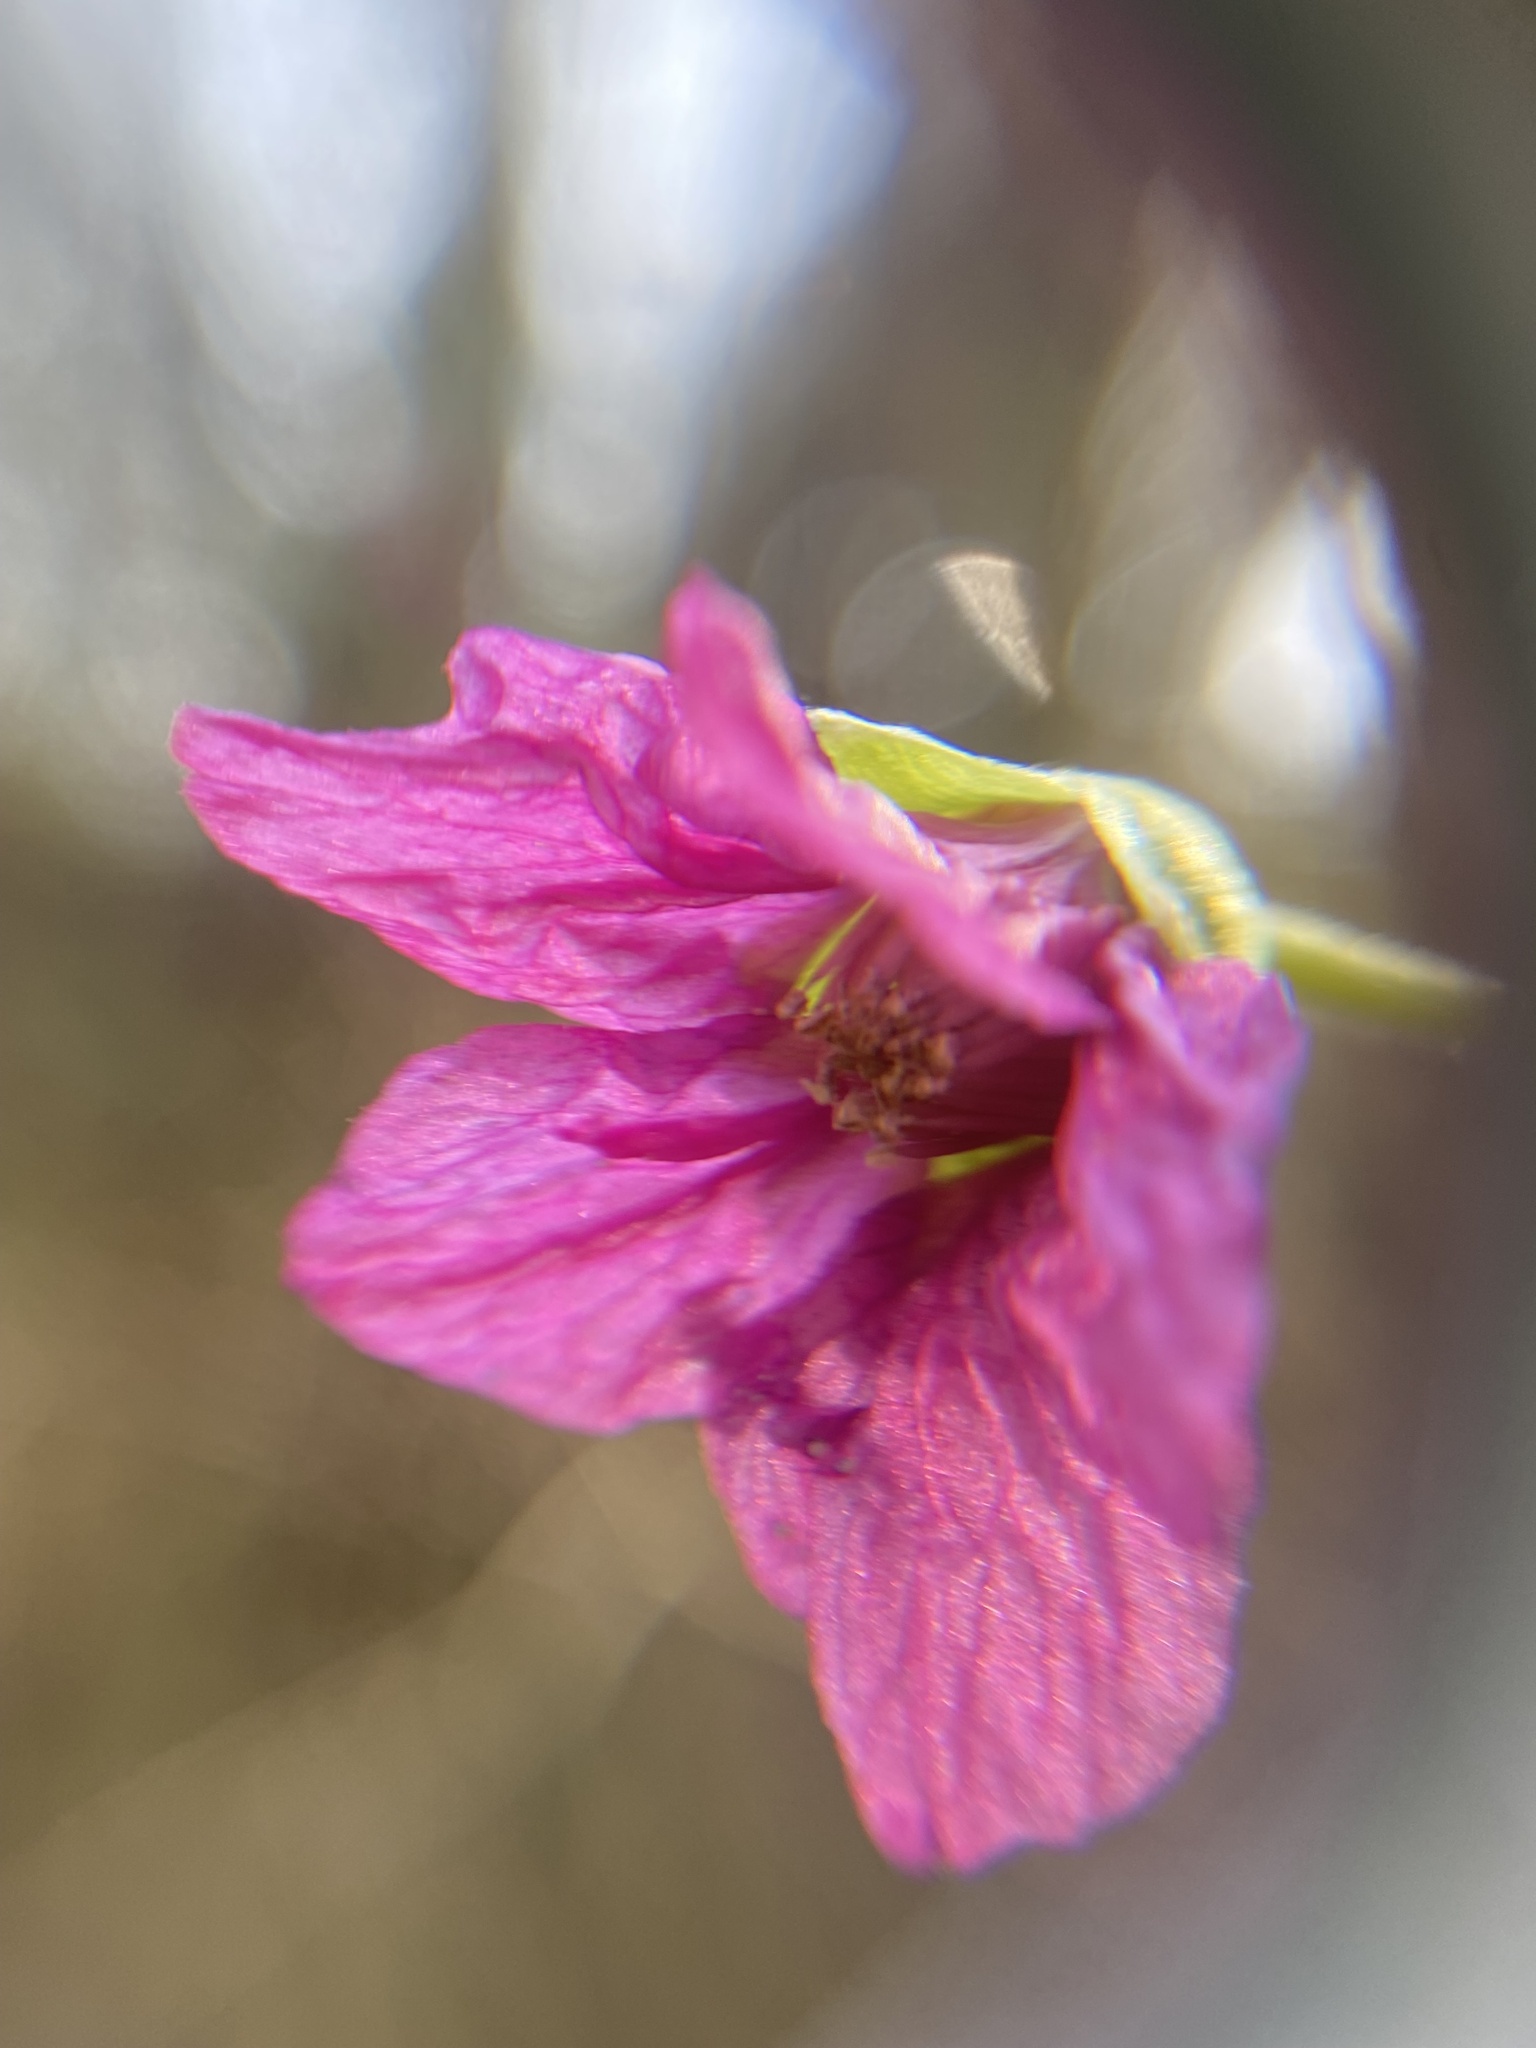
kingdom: Plantae
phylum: Tracheophyta
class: Magnoliopsida
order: Rosales
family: Rosaceae
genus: Rubus
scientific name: Rubus spectabilis
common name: Salmonberry
